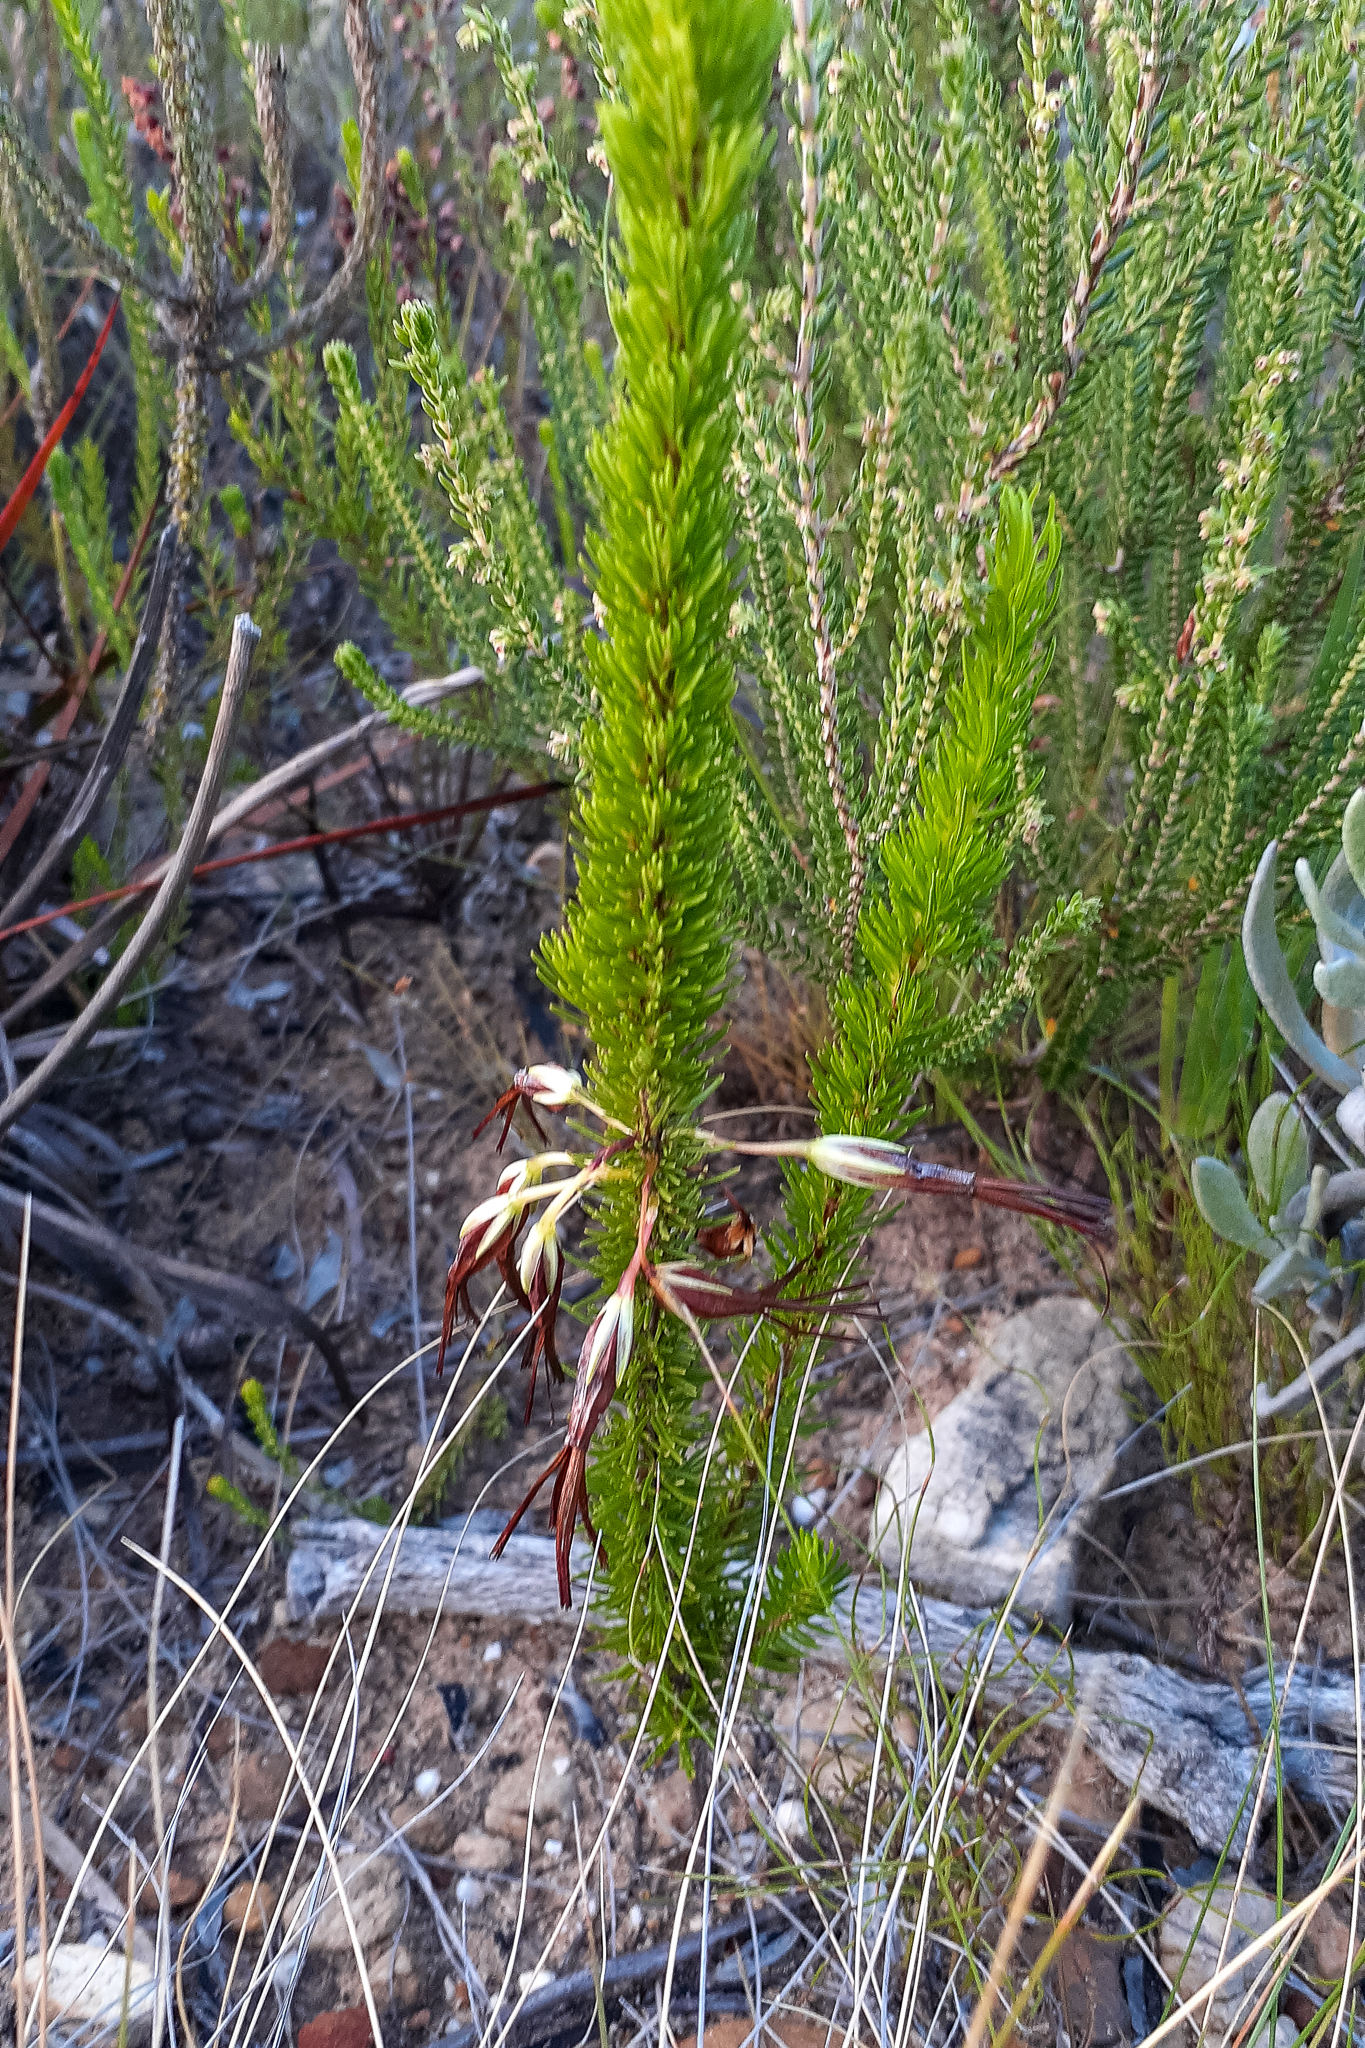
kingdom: Plantae
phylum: Tracheophyta
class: Magnoliopsida
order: Ericales
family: Ericaceae
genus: Erica
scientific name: Erica plukenetii
